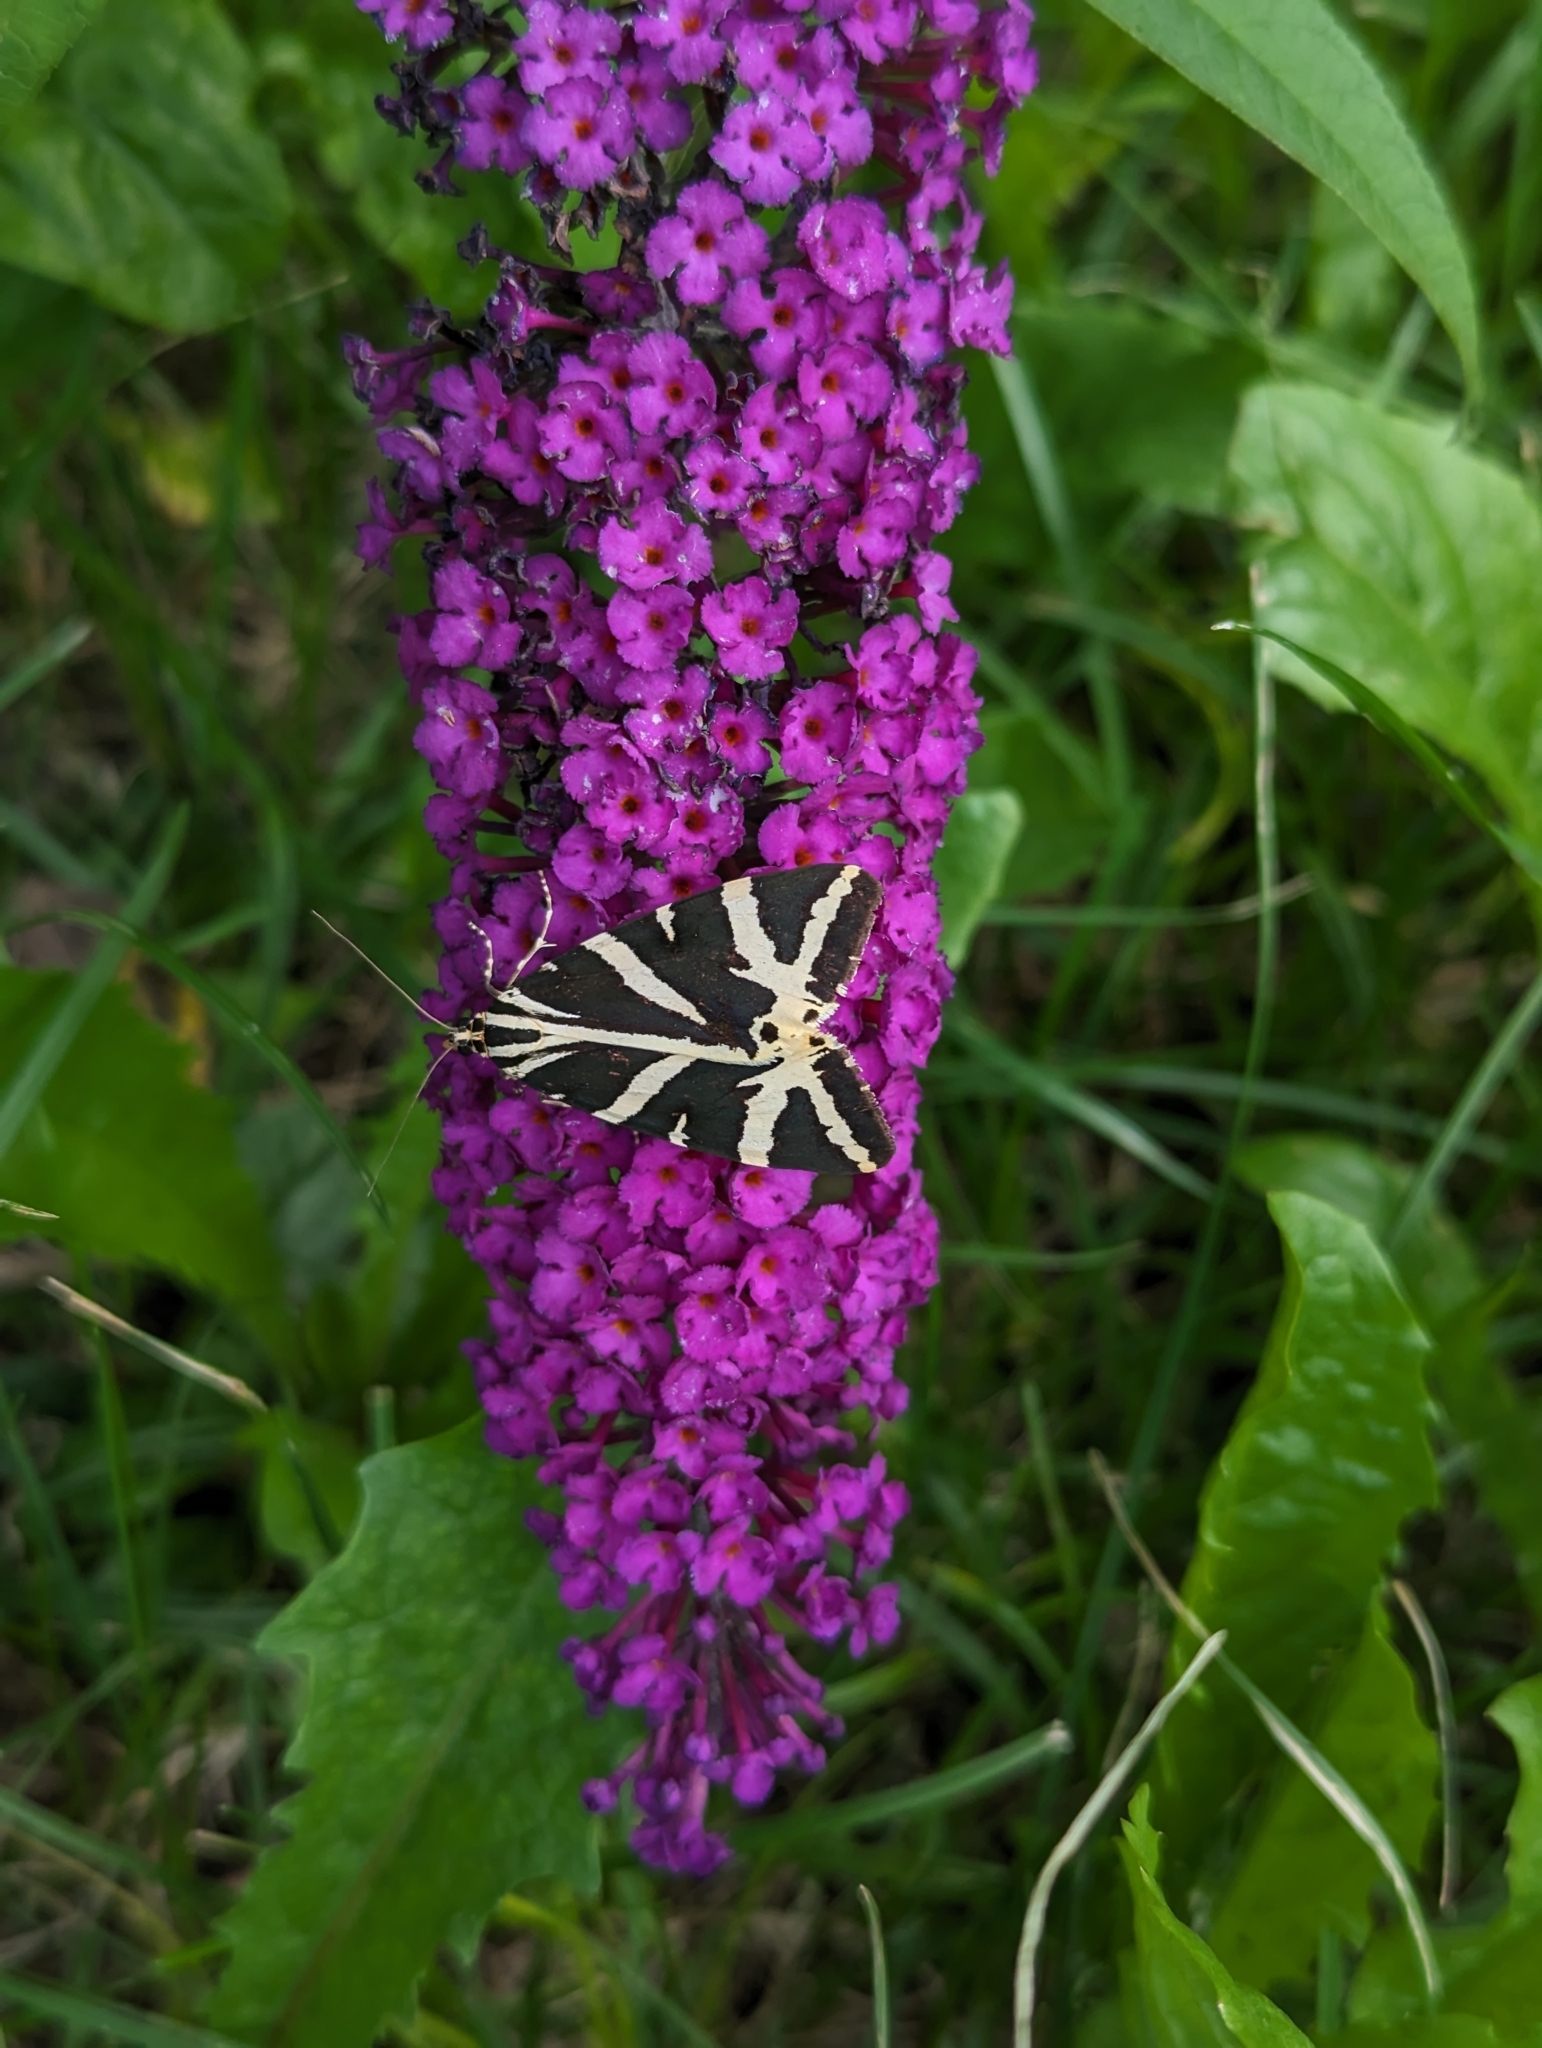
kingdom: Animalia
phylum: Arthropoda
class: Insecta
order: Lepidoptera
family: Erebidae
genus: Euplagia
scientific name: Euplagia quadripunctaria
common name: Jersey tiger
